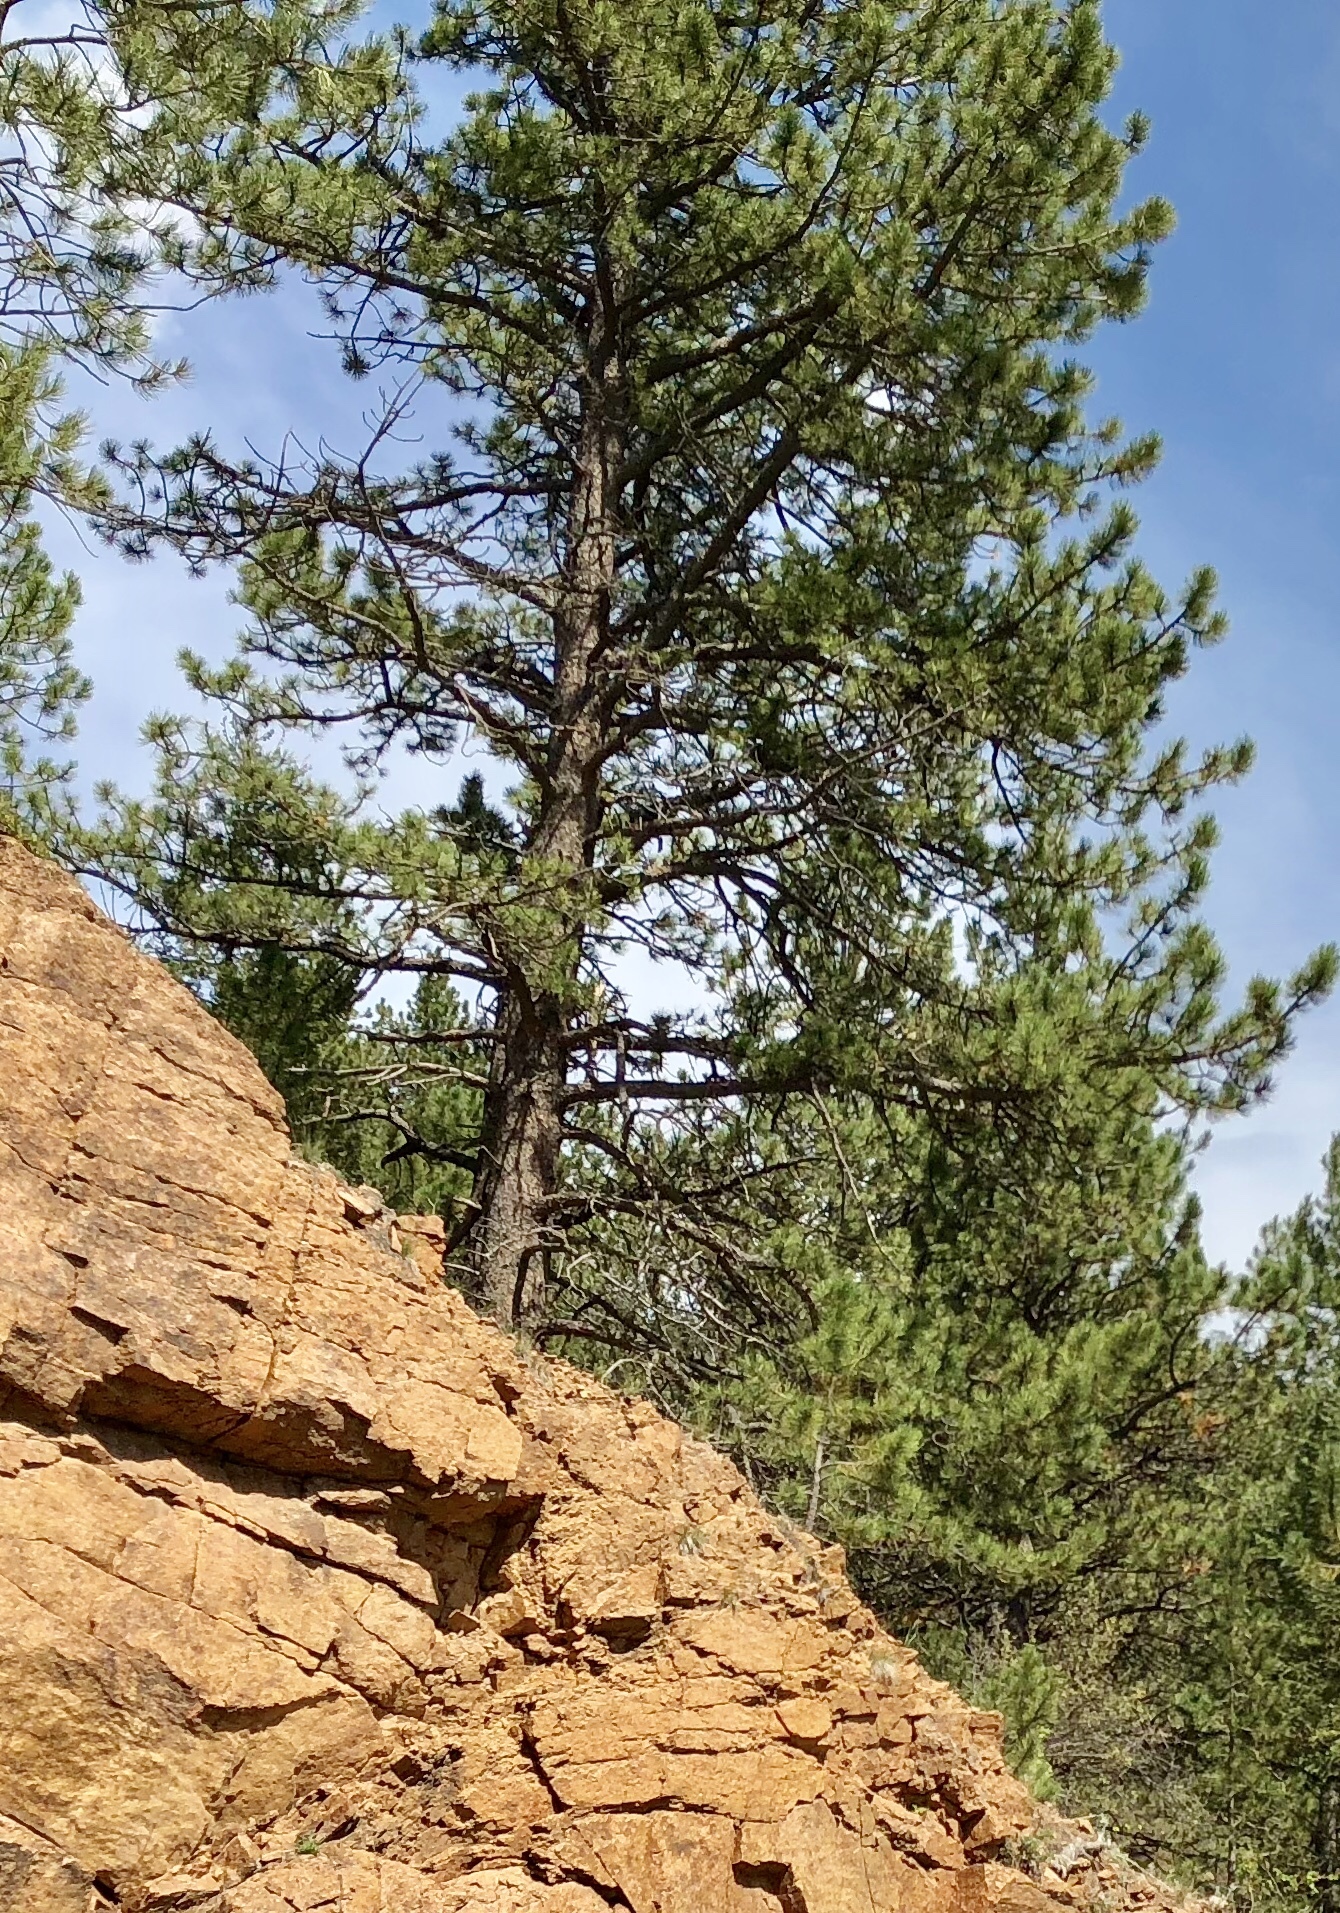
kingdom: Plantae
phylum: Tracheophyta
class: Pinopsida
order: Pinales
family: Pinaceae
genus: Pinus
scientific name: Pinus ponderosa
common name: Western yellow-pine
